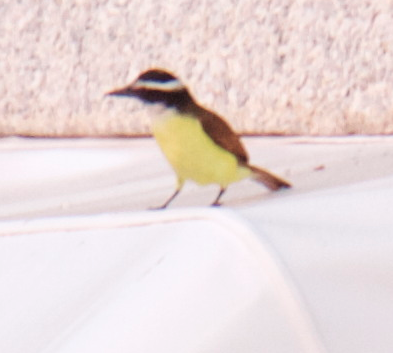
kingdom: Animalia
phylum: Chordata
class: Aves
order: Passeriformes
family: Tyrannidae
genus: Pitangus
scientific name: Pitangus sulphuratus
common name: Great kiskadee
